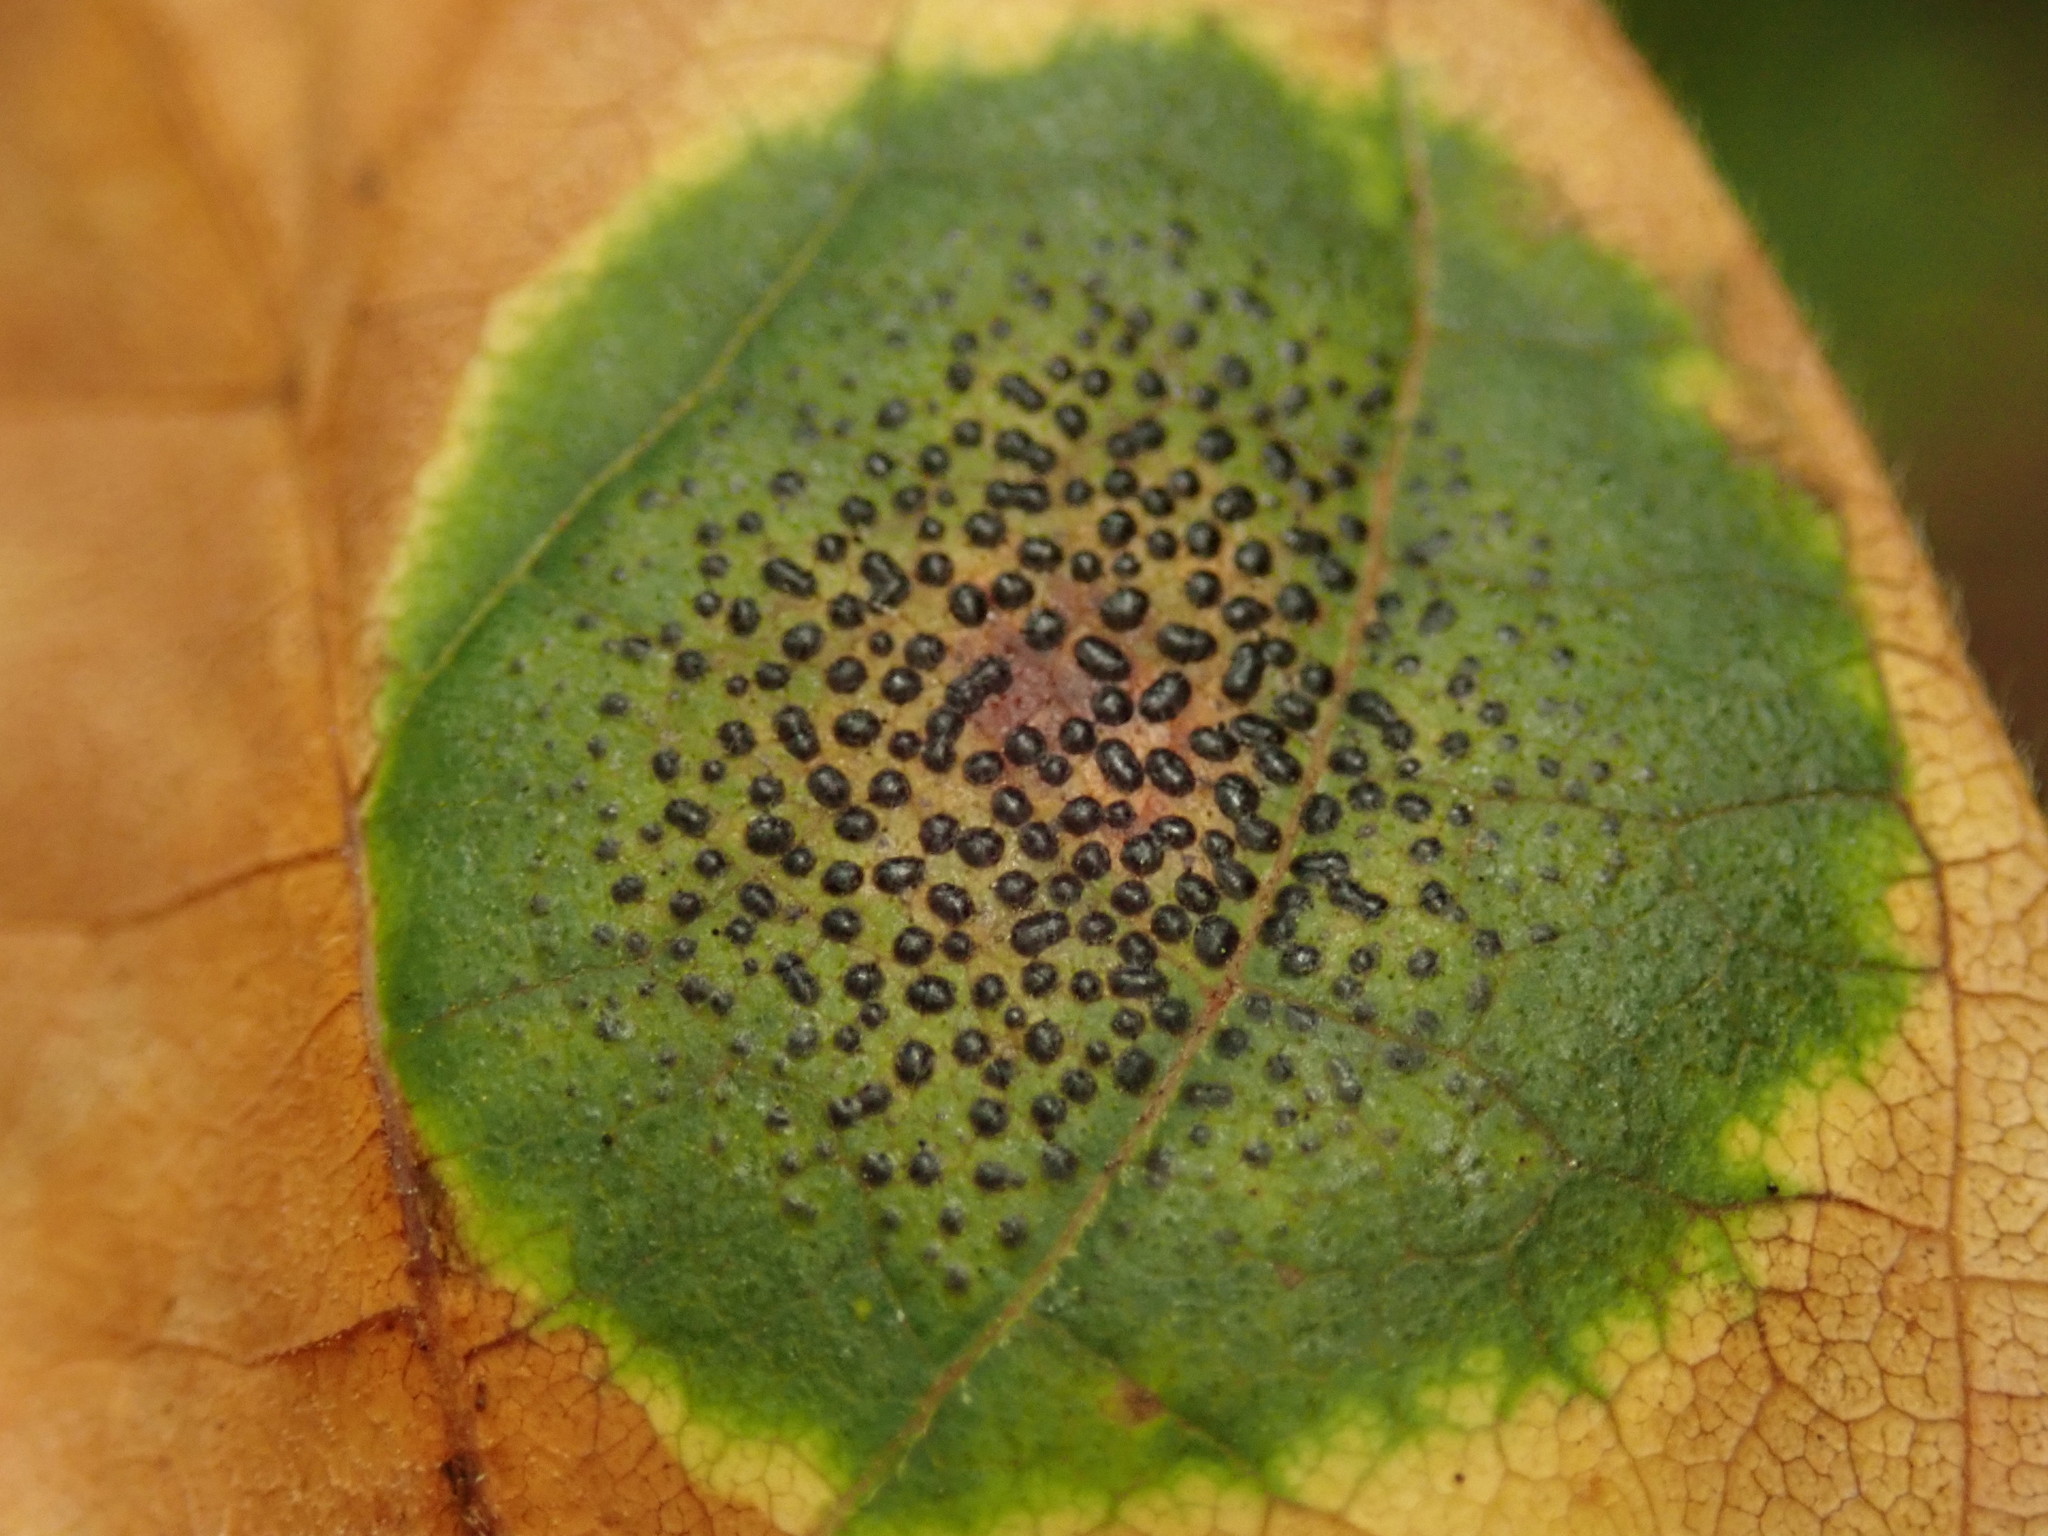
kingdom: Fungi
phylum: Ascomycota
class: Leotiomycetes
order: Rhytismatales
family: Rhytismataceae
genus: Rhytisma
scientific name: Rhytisma punctatum
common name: Speckled tar spot
